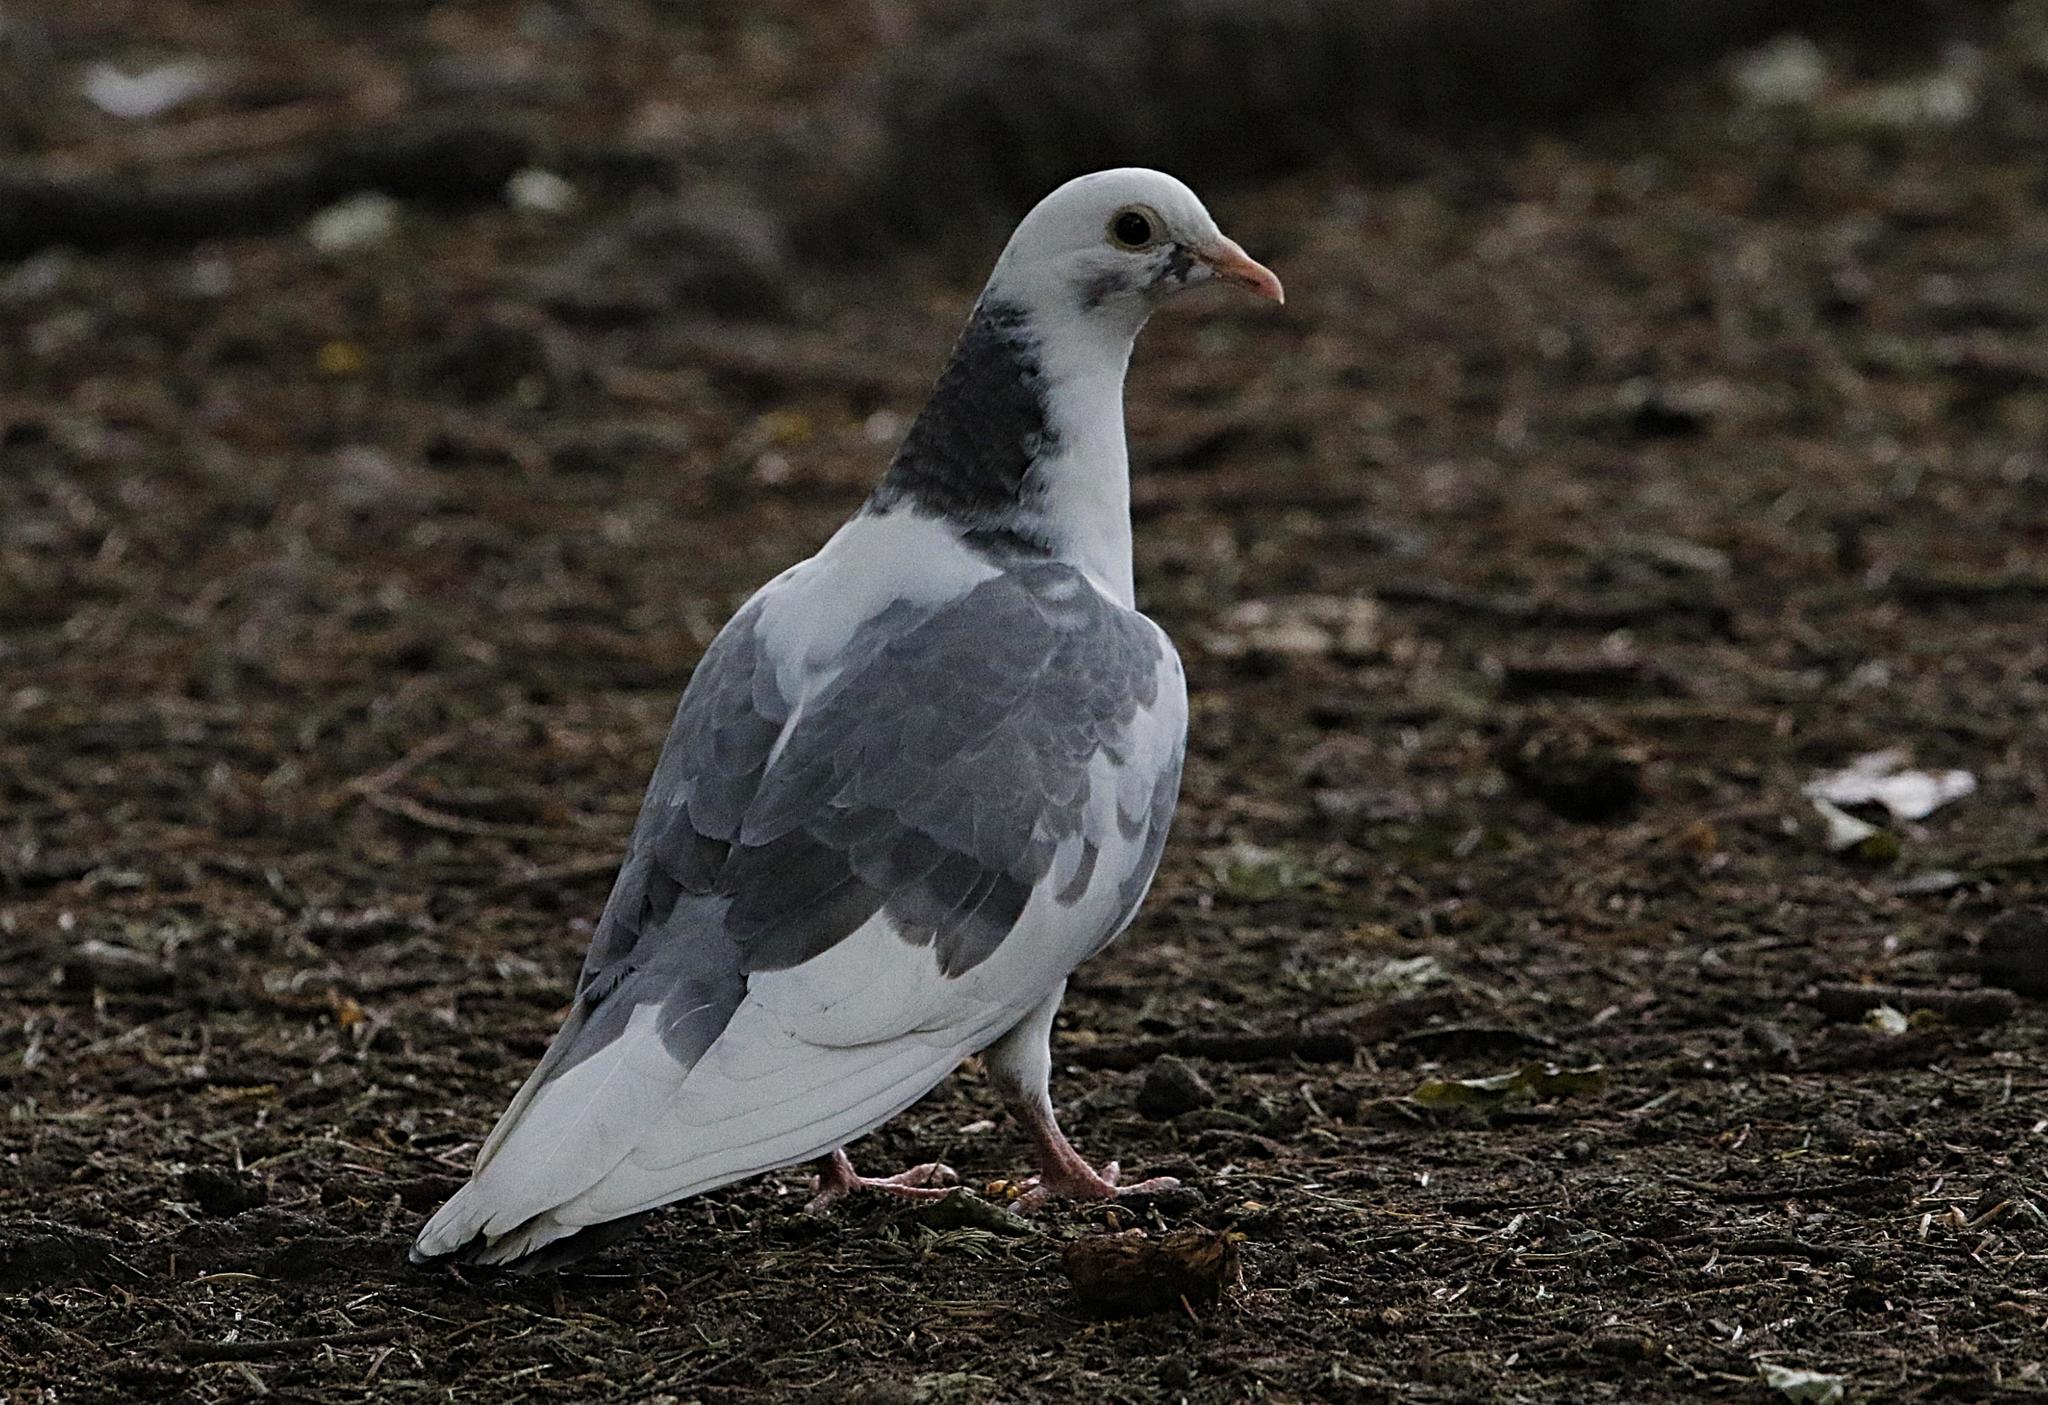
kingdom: Animalia
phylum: Chordata
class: Aves
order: Columbiformes
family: Columbidae
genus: Columba
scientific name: Columba livia
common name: Rock pigeon
